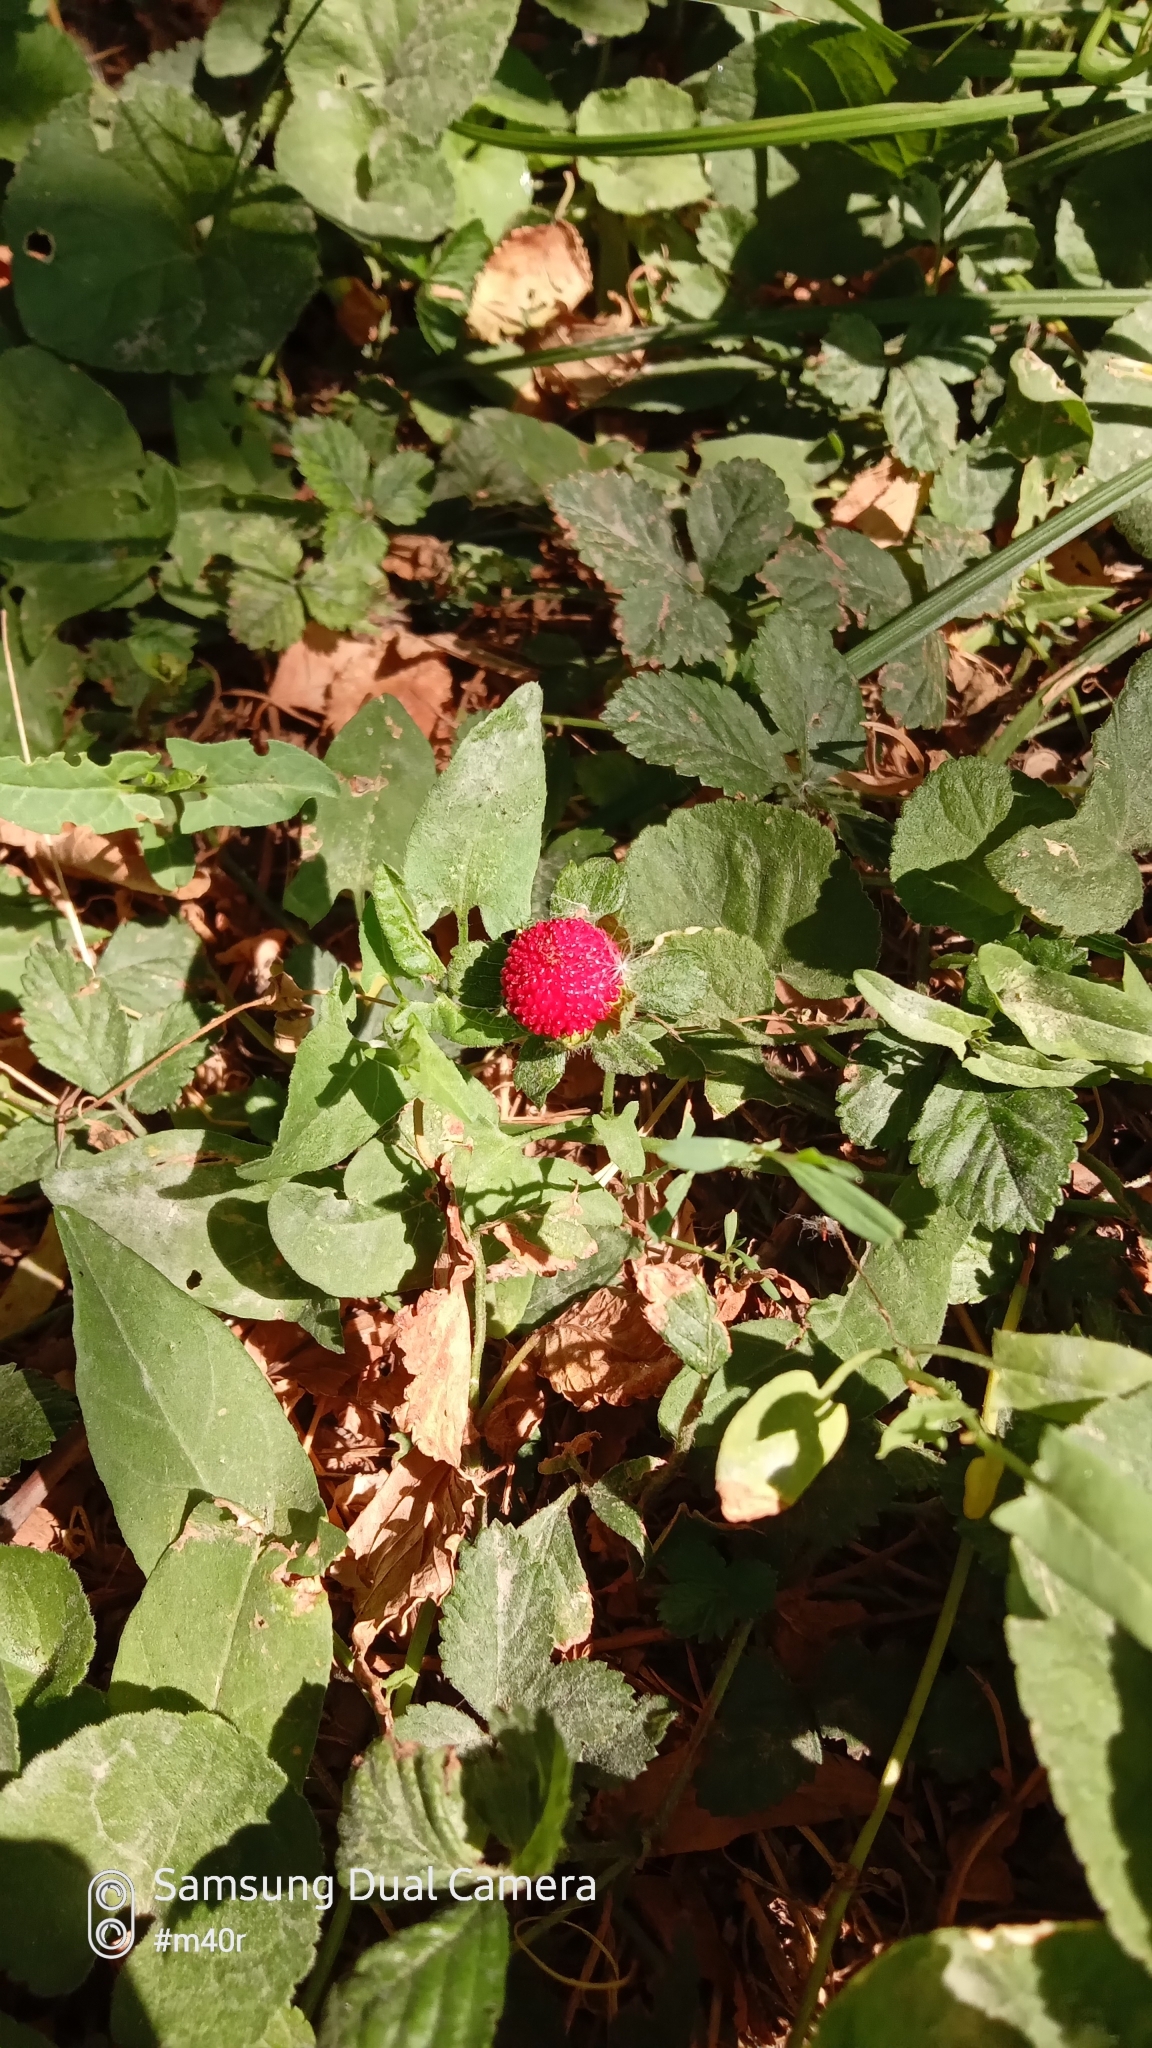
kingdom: Plantae
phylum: Tracheophyta
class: Magnoliopsida
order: Rosales
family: Rosaceae
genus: Potentilla
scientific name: Potentilla indica
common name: Yellow-flowered strawberry
